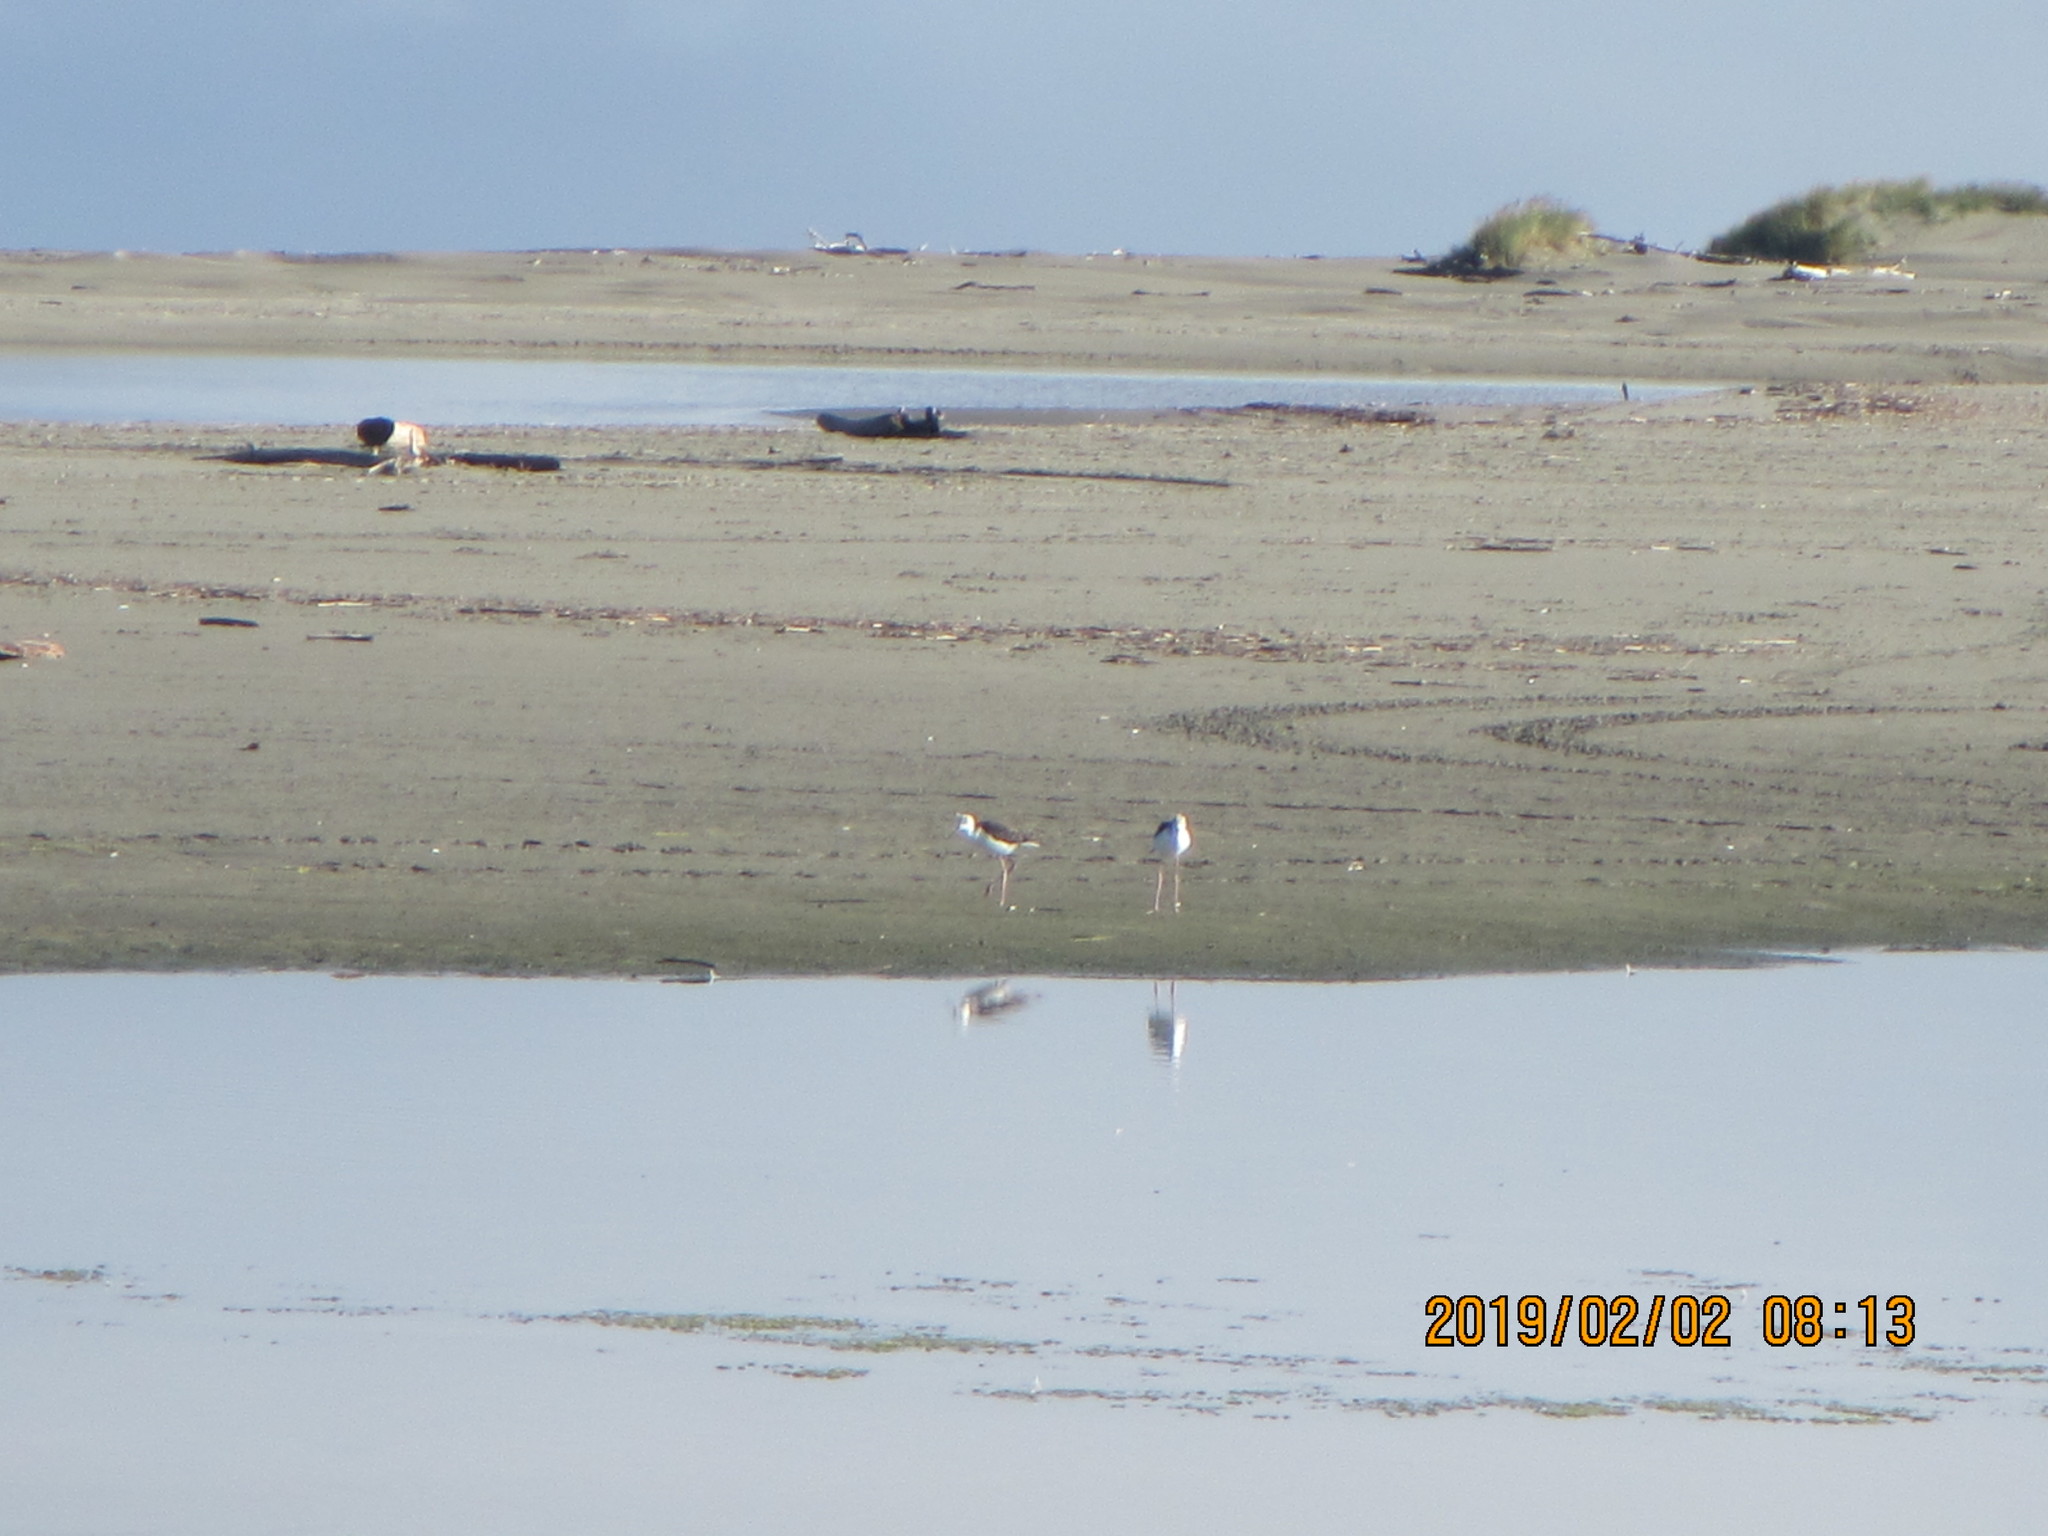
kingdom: Animalia
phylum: Chordata
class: Aves
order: Charadriiformes
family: Recurvirostridae
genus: Himantopus
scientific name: Himantopus leucocephalus
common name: White-headed stilt
